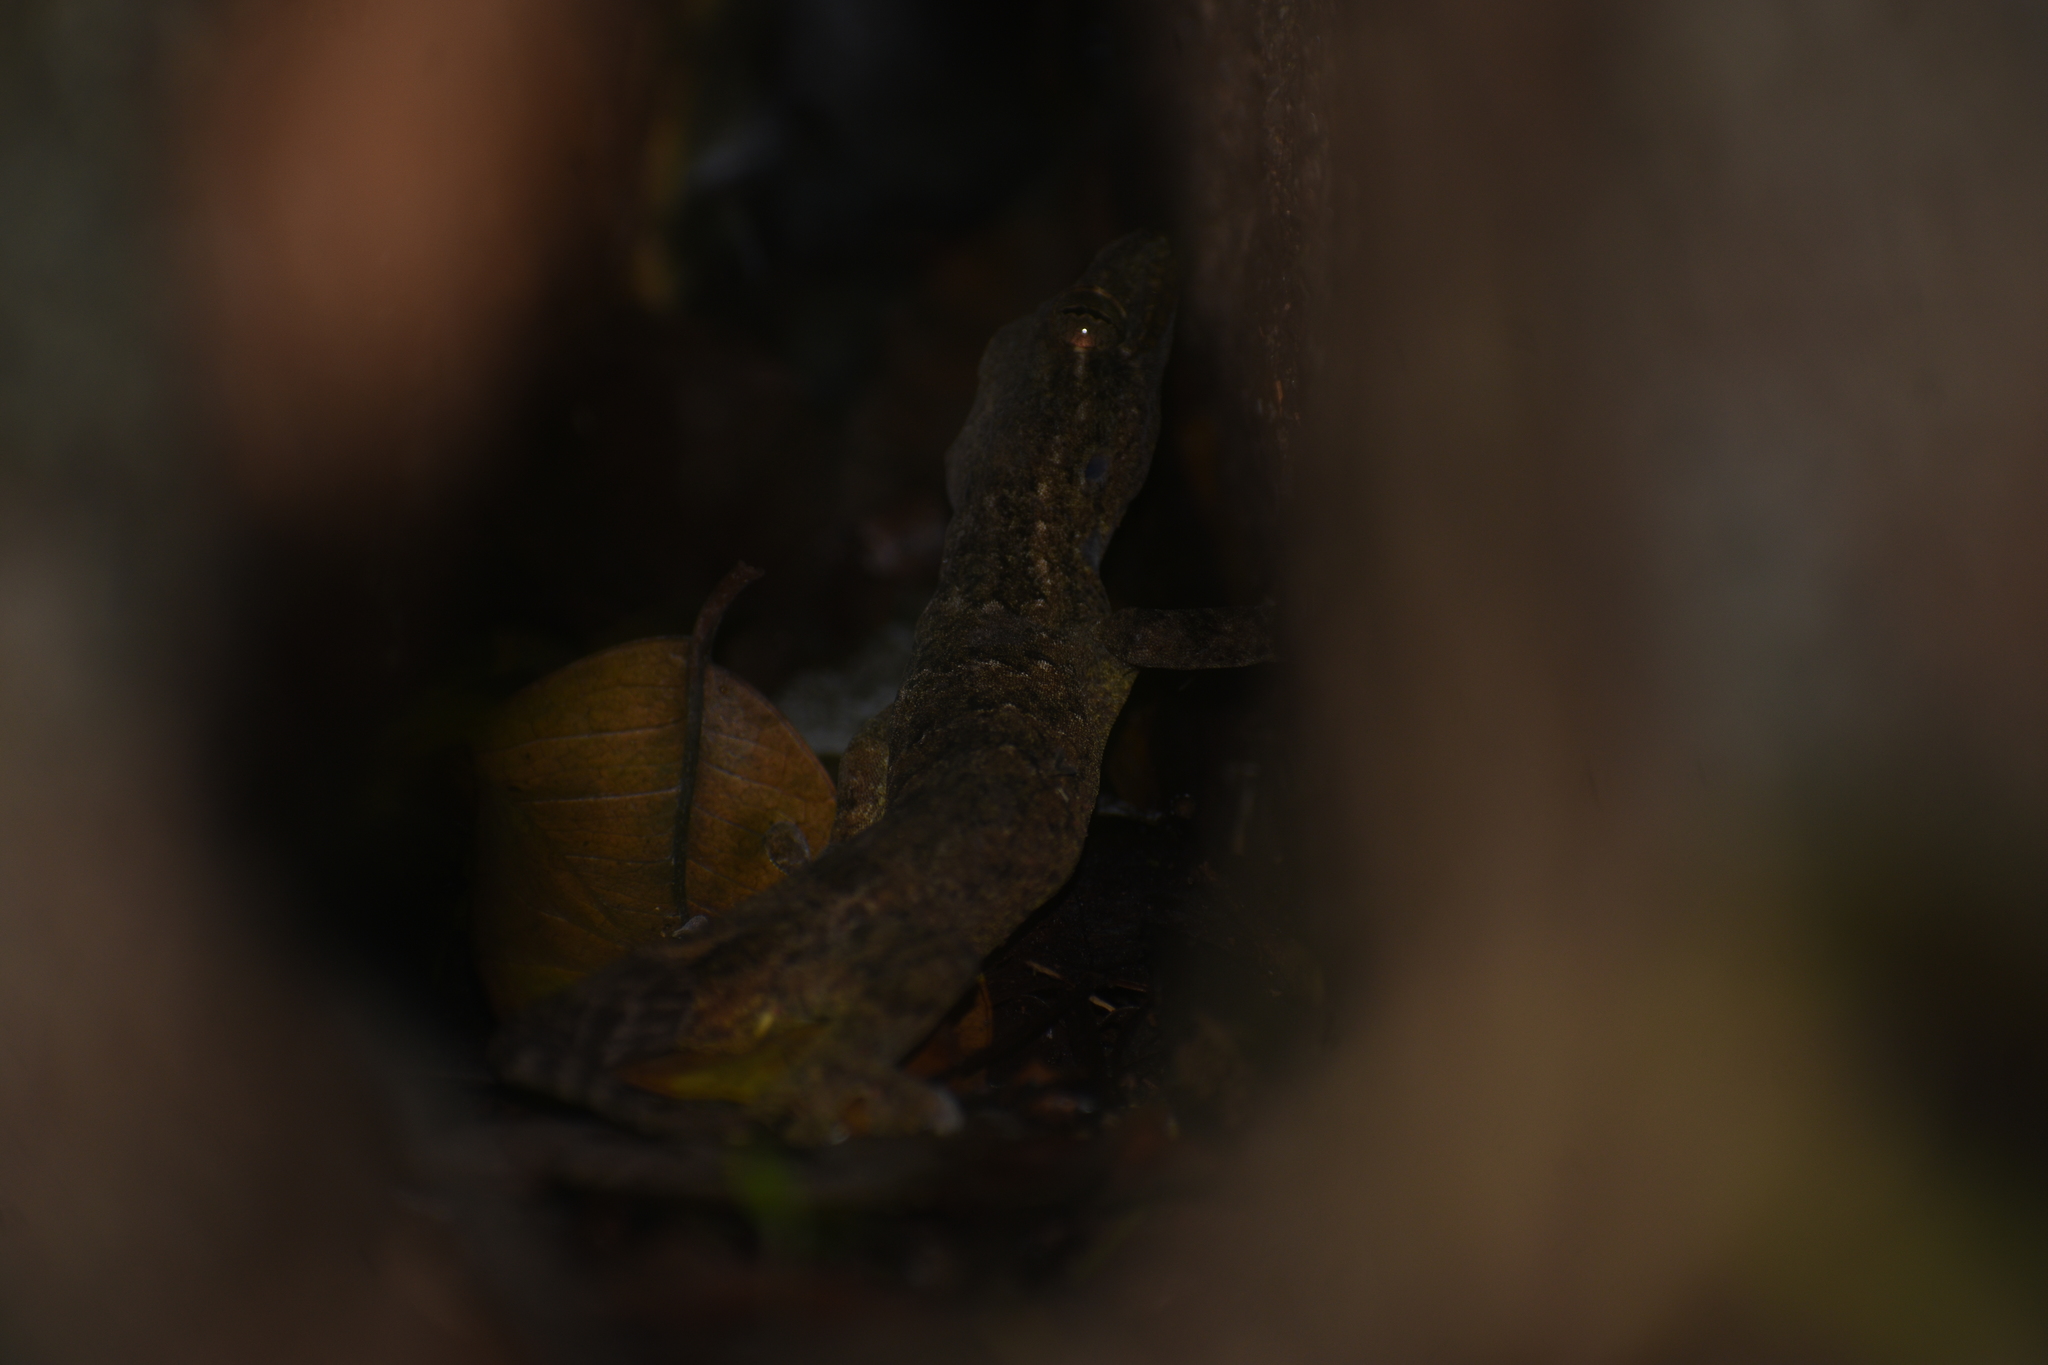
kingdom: Animalia
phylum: Chordata
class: Squamata
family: Phyllodactylidae
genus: Thecadactylus
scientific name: Thecadactylus rapicauda
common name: Turnip-tailed gecko
